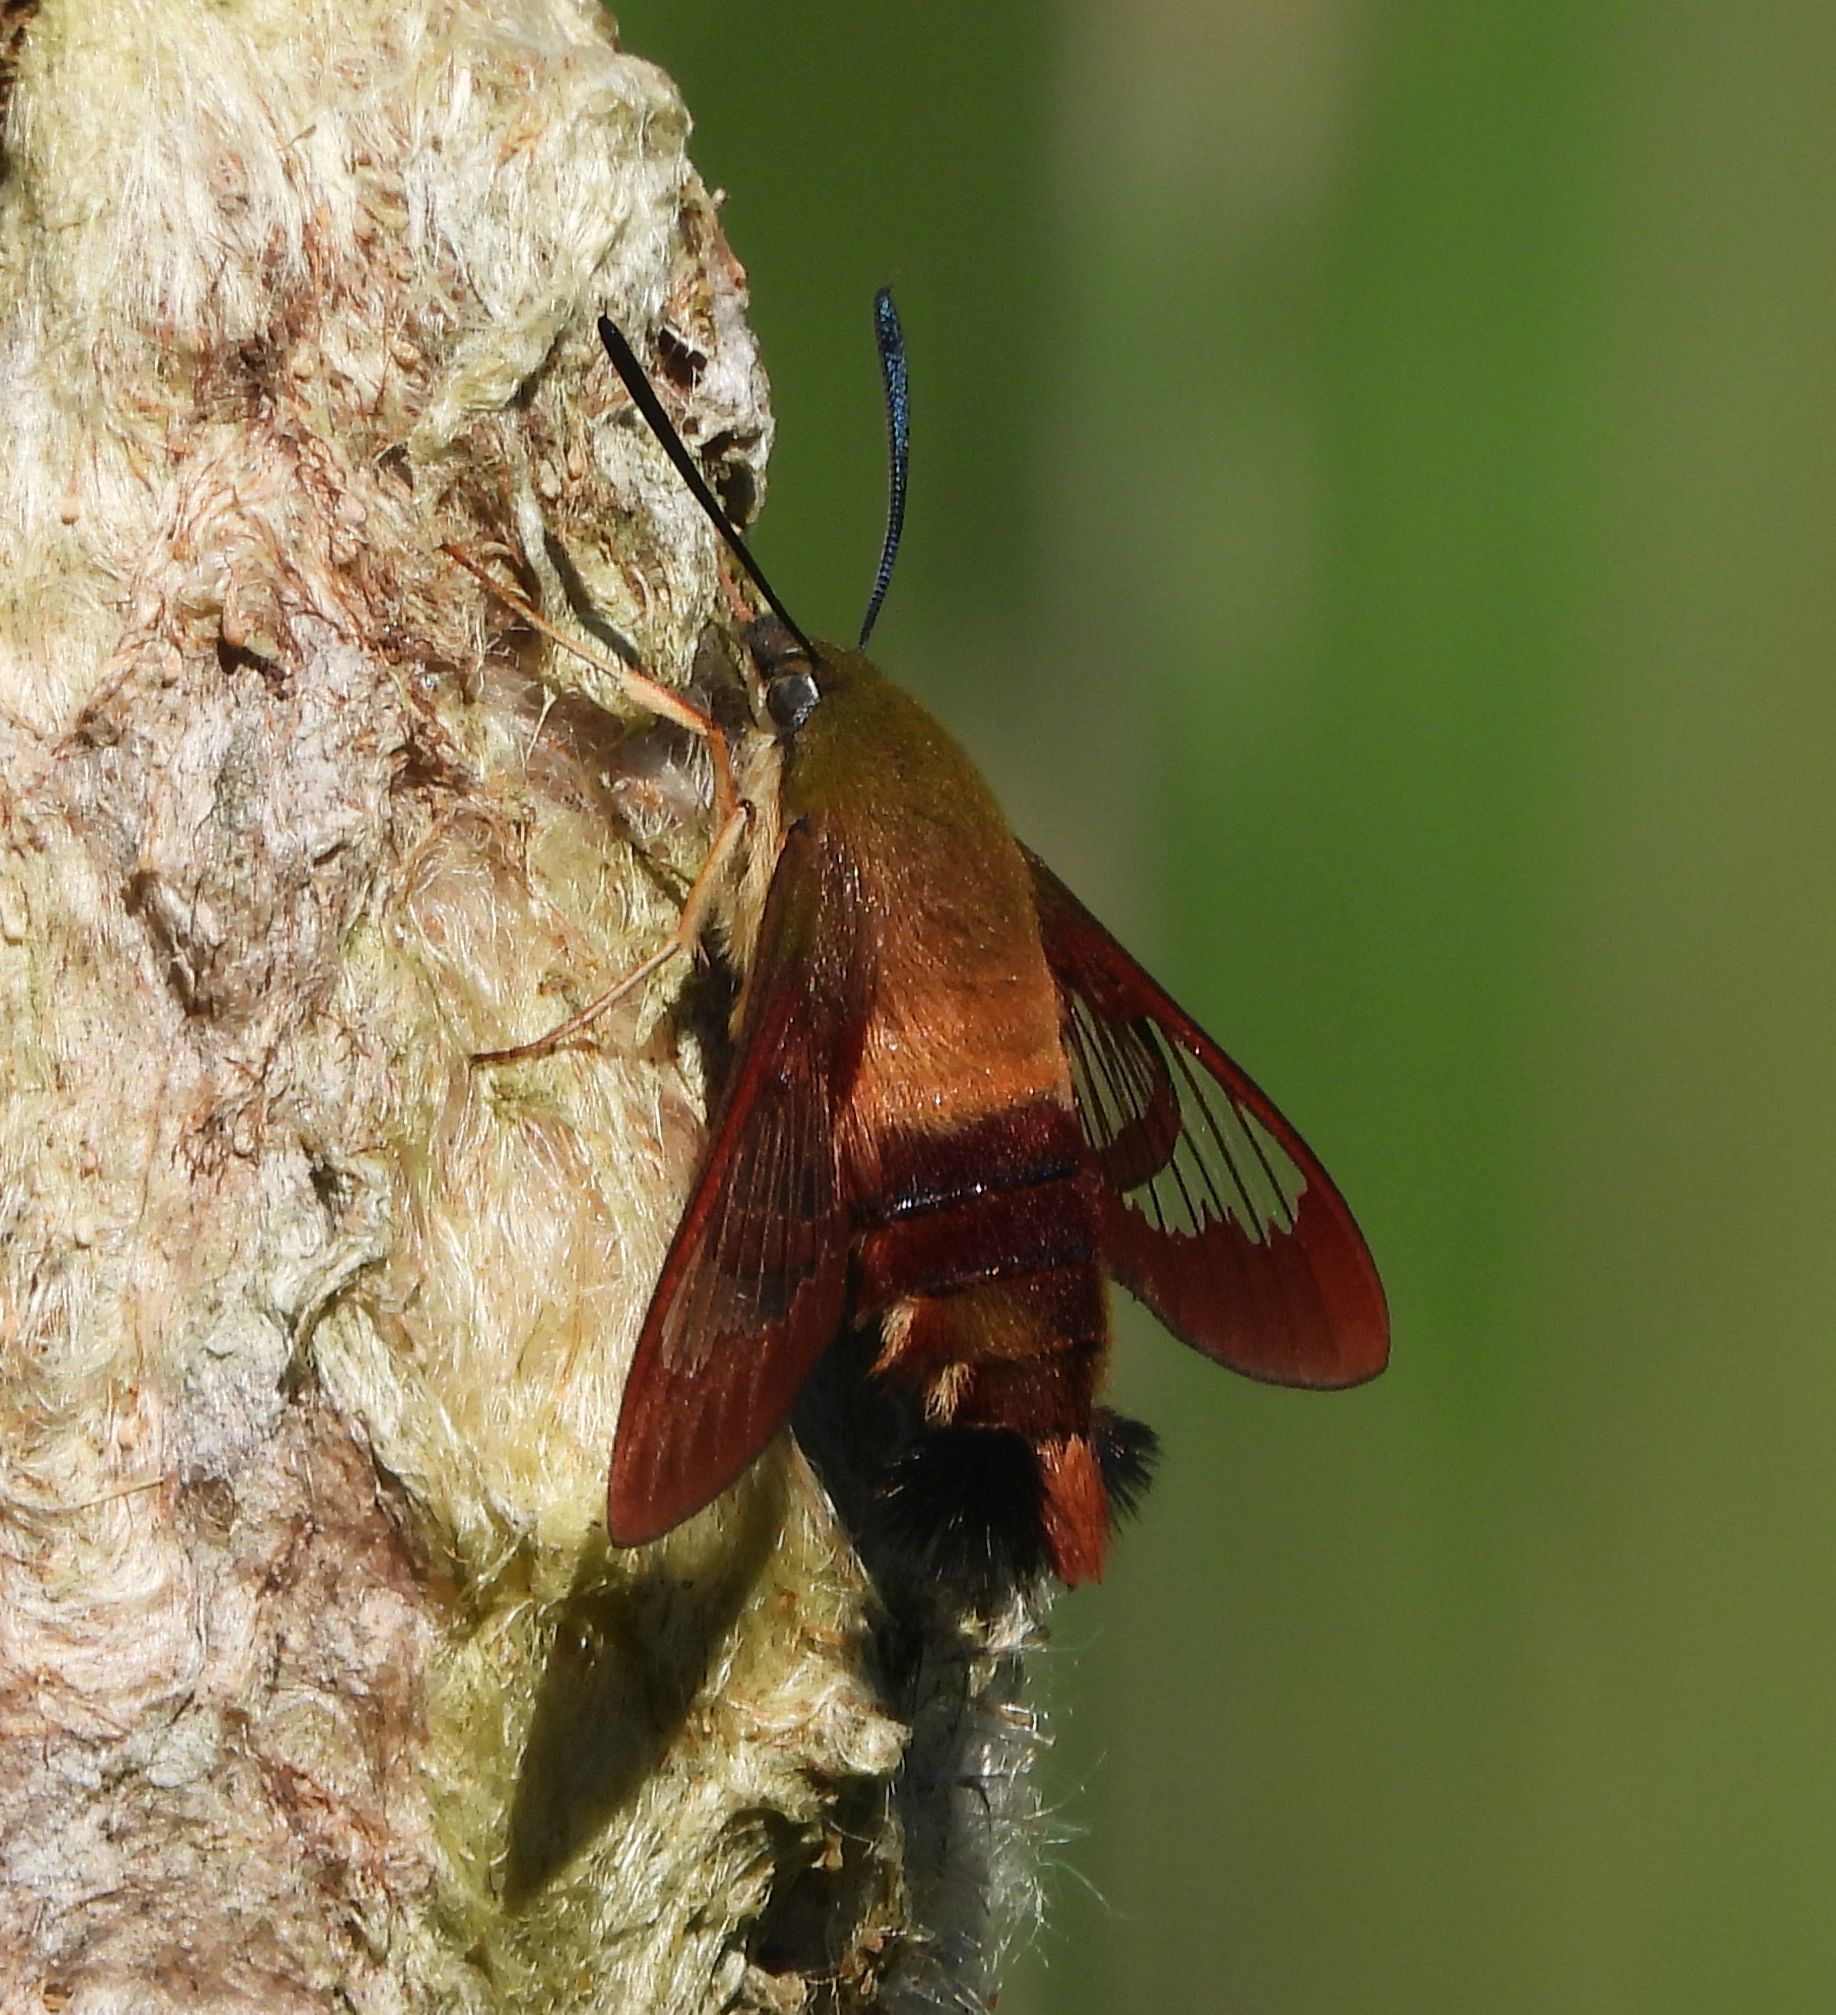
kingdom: Animalia
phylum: Arthropoda
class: Insecta
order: Lepidoptera
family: Sphingidae
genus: Hemaris
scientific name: Hemaris thysbe
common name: Common clear-wing
